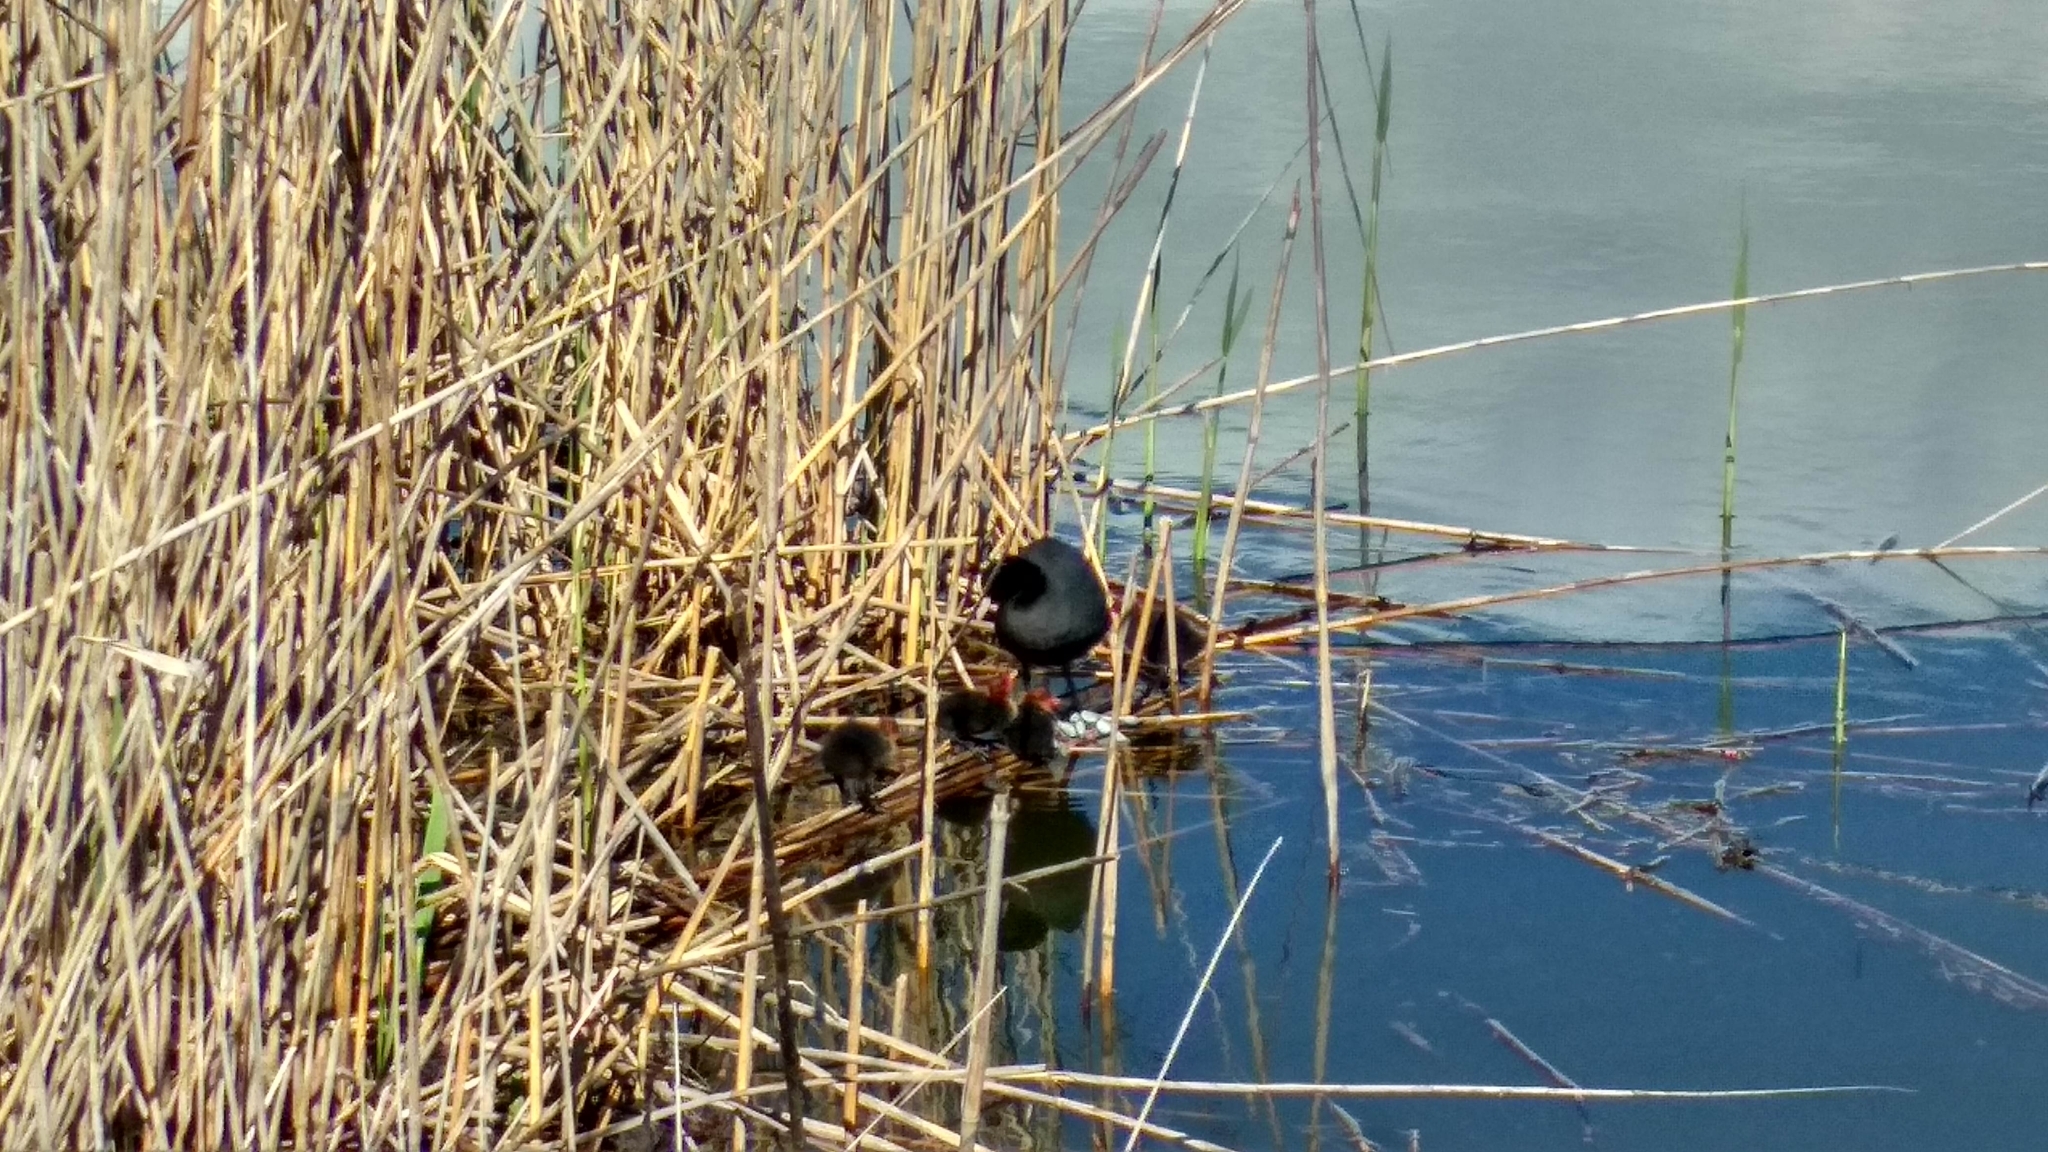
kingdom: Animalia
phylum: Chordata
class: Aves
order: Gruiformes
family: Rallidae
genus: Fulica
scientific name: Fulica atra
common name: Eurasian coot
